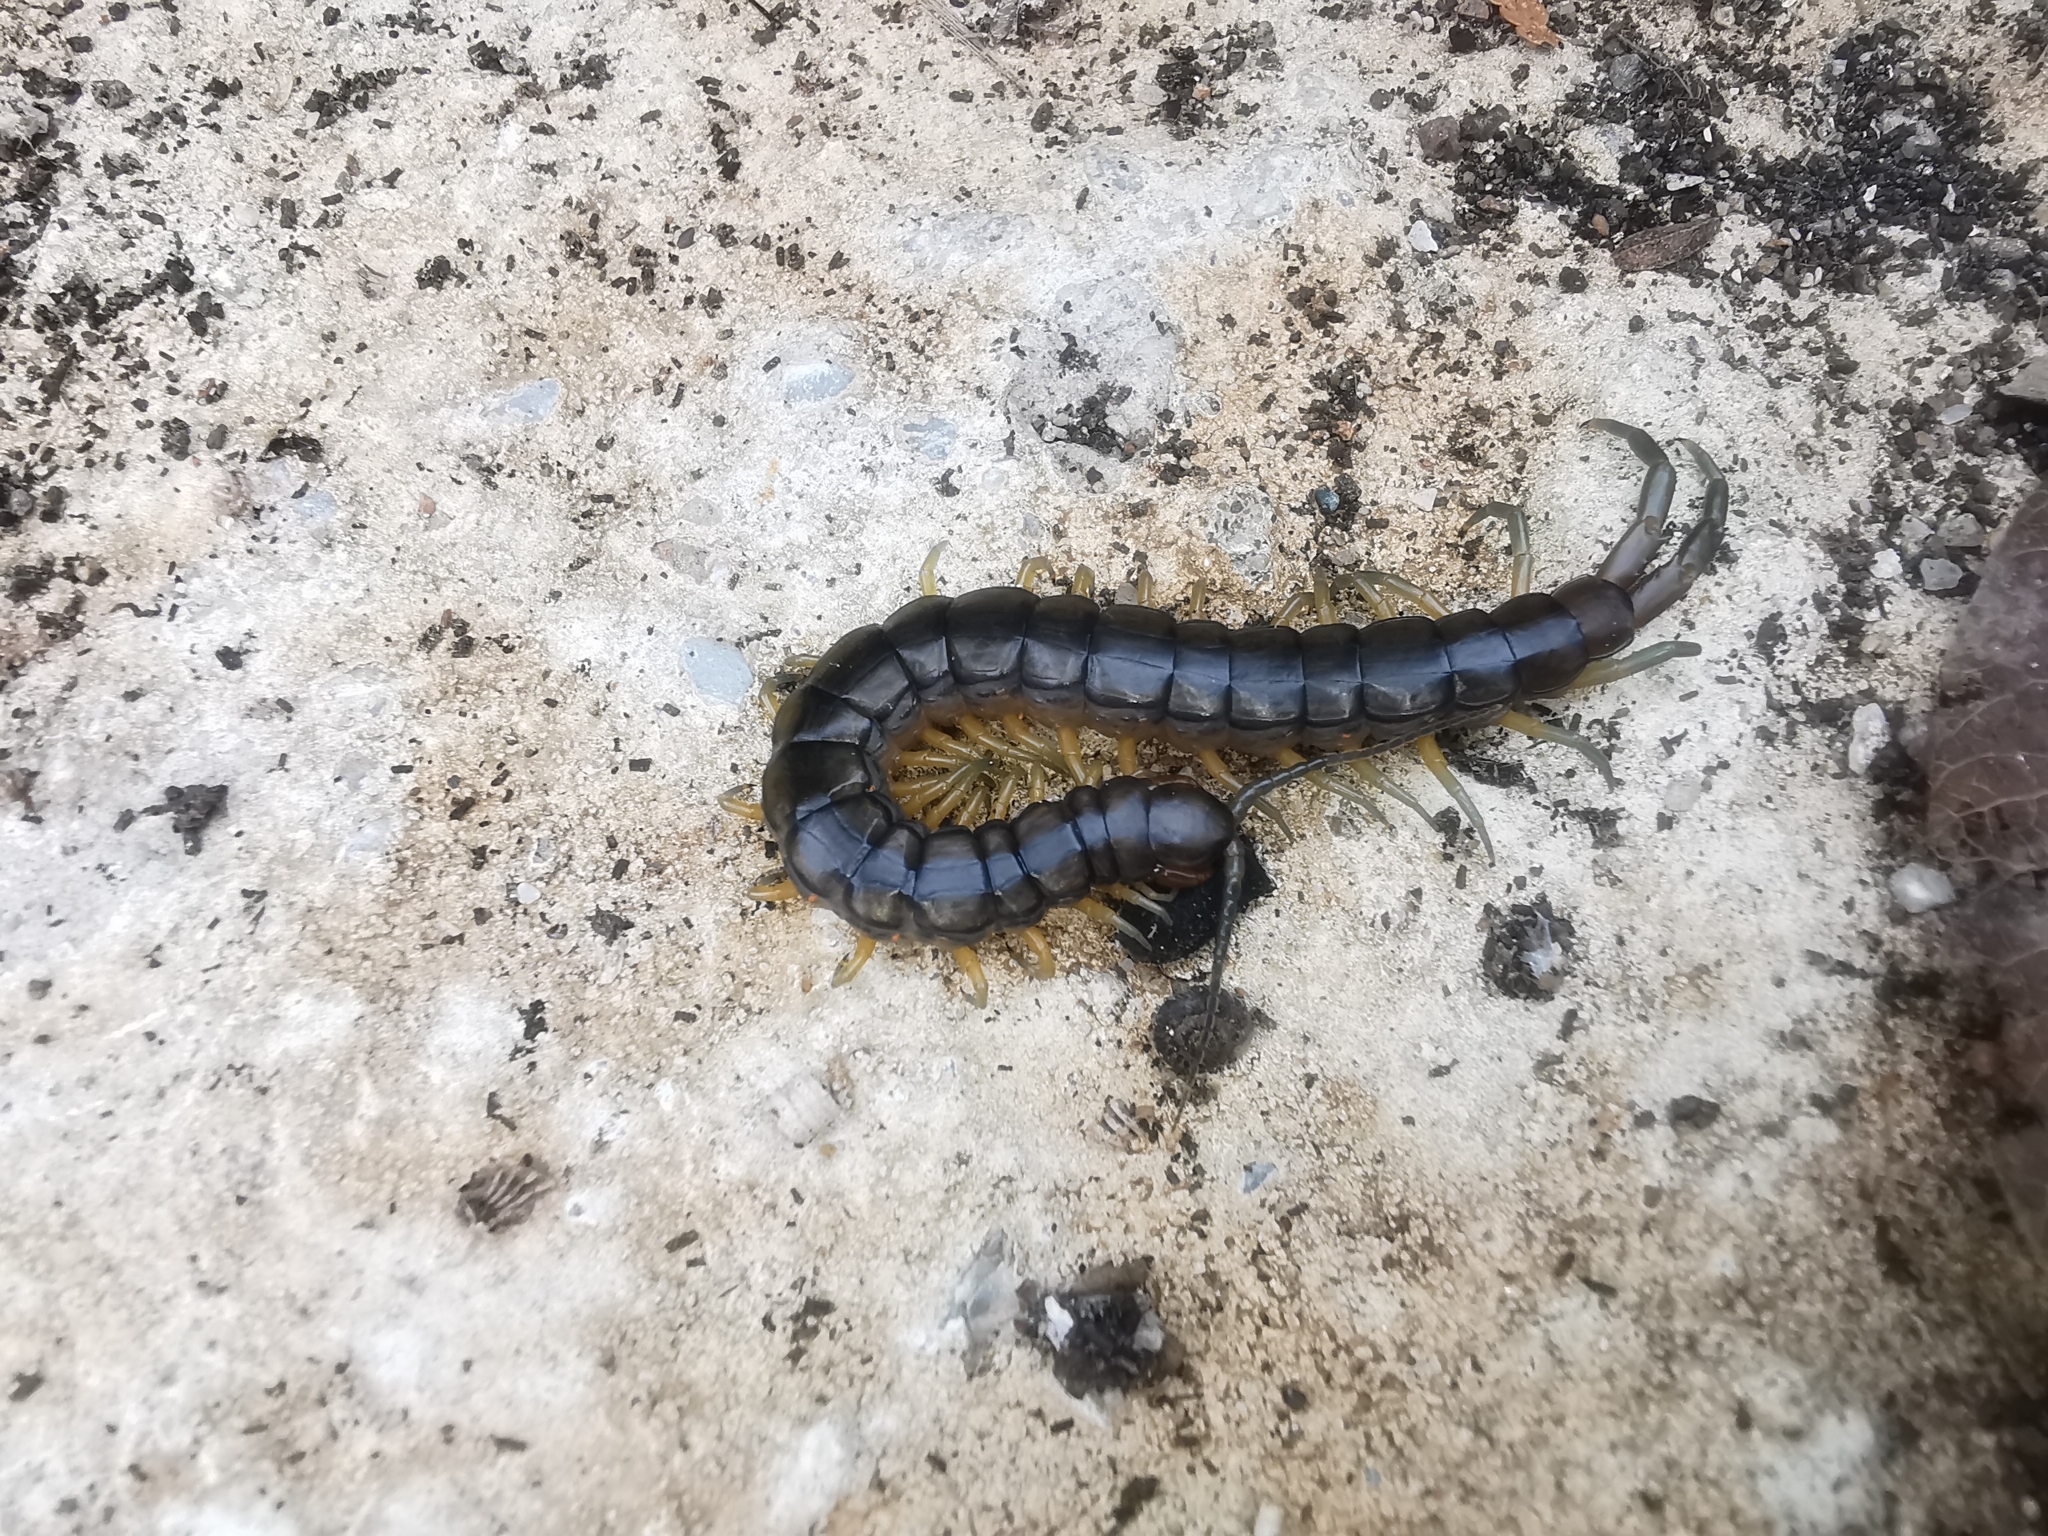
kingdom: Animalia
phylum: Arthropoda
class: Chilopoda
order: Scolopendromorpha
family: Scolopendridae
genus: Scolopendra
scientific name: Scolopendra cingulata
